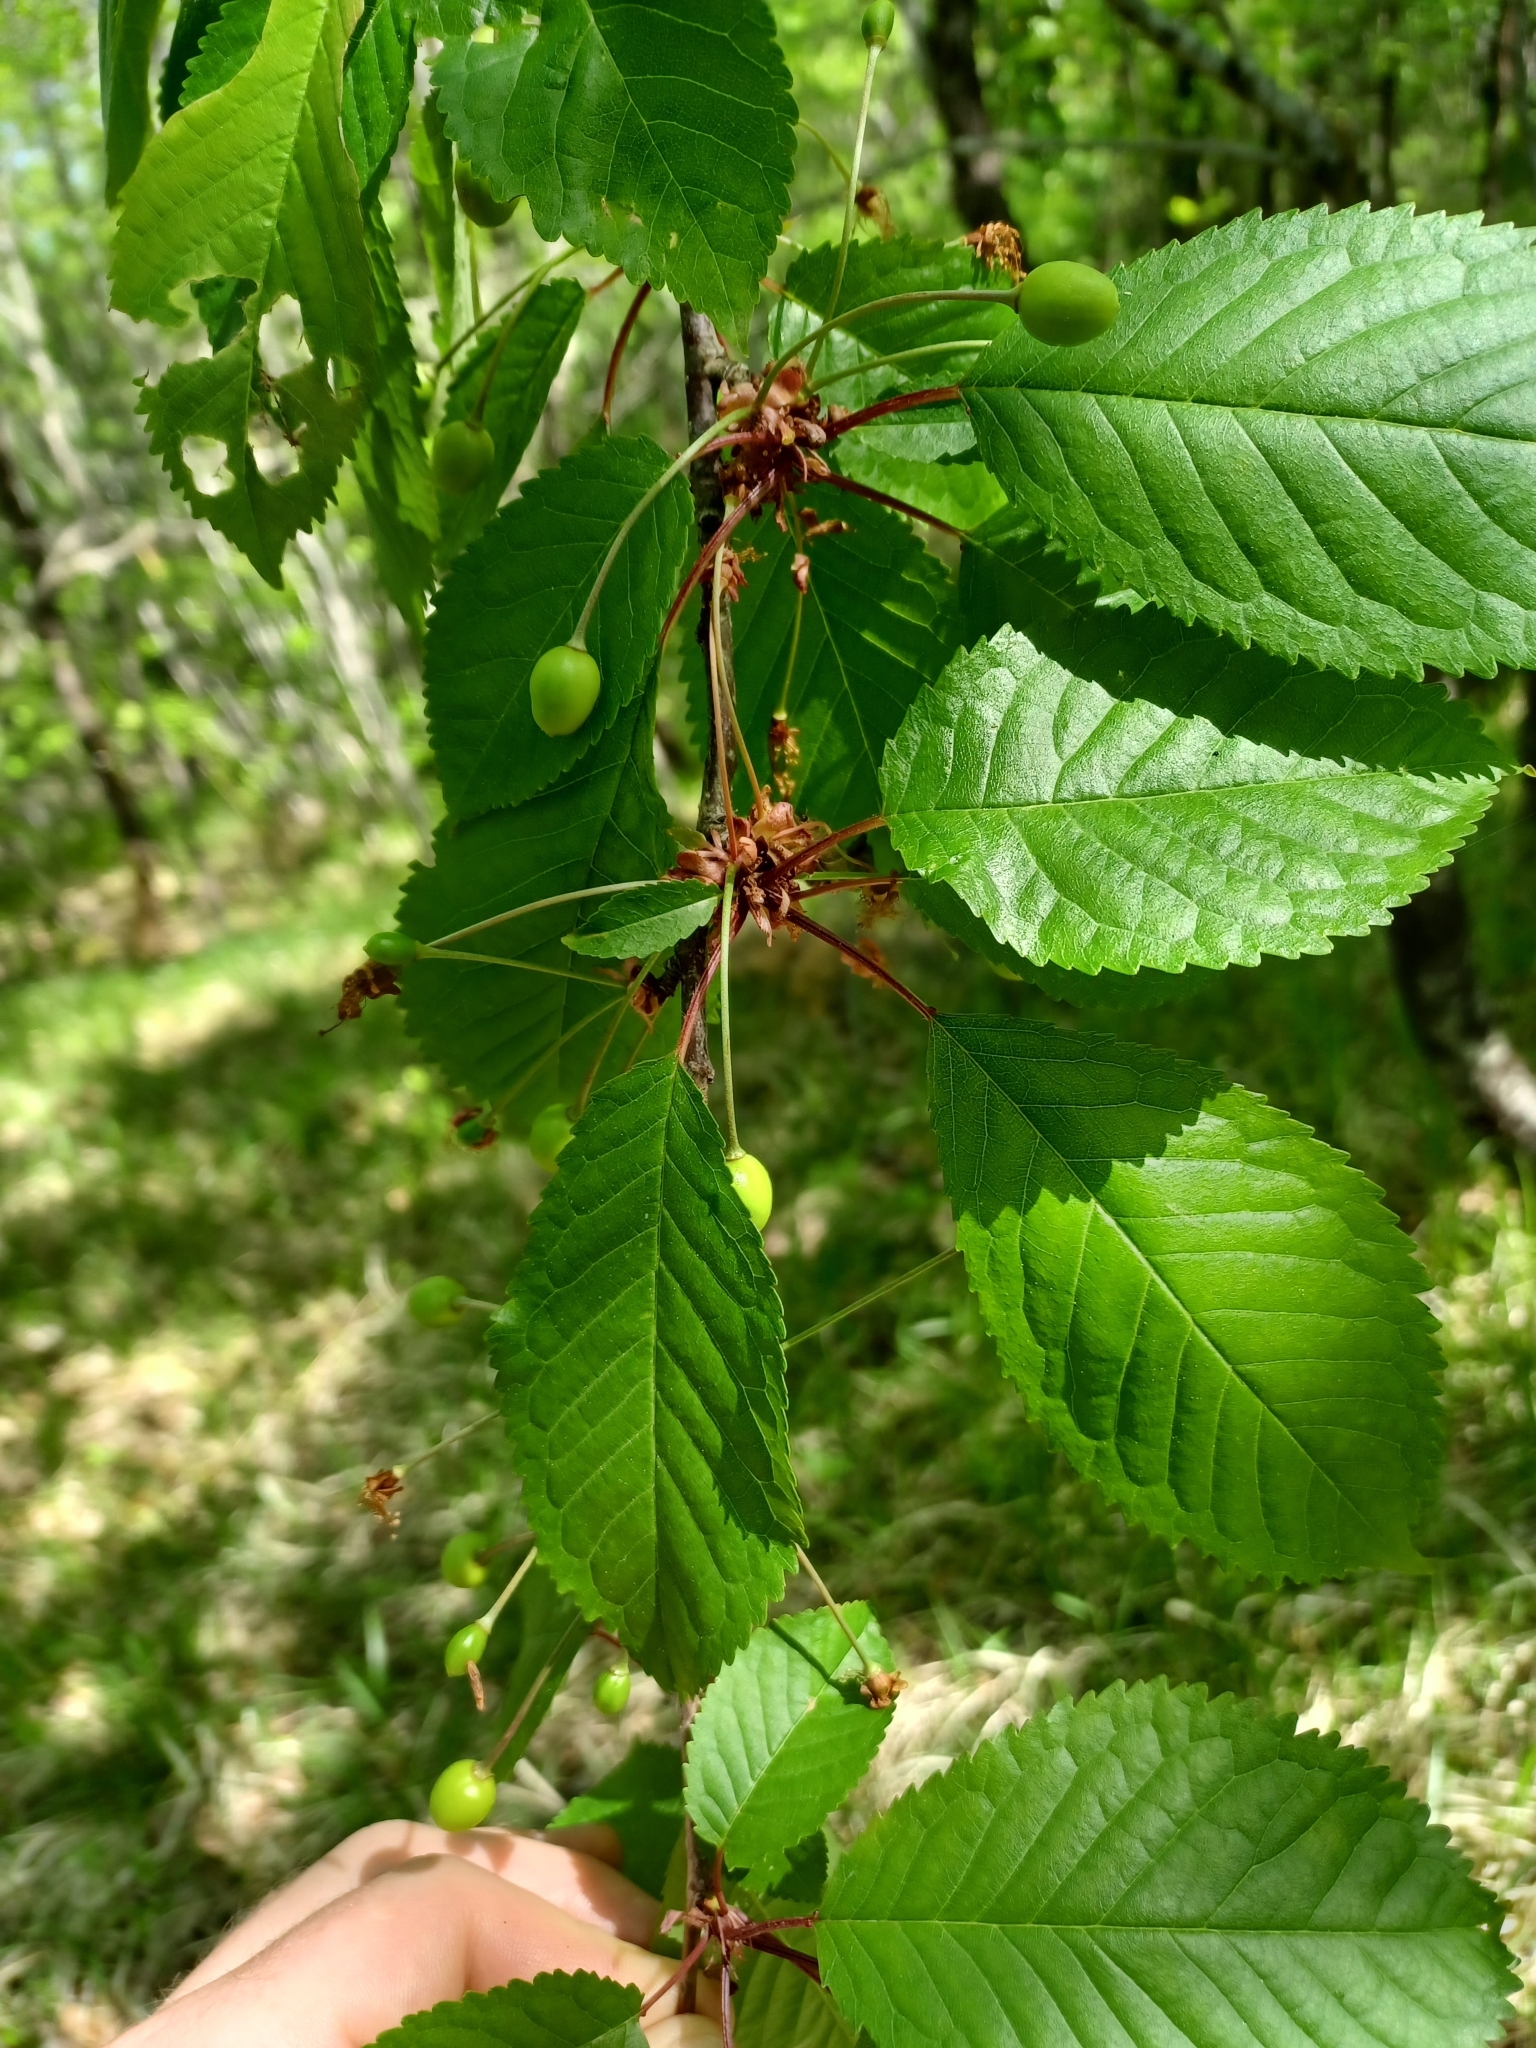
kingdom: Plantae
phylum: Tracheophyta
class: Magnoliopsida
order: Rosales
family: Rosaceae
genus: Prunus
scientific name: Prunus avium
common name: Sweet cherry
